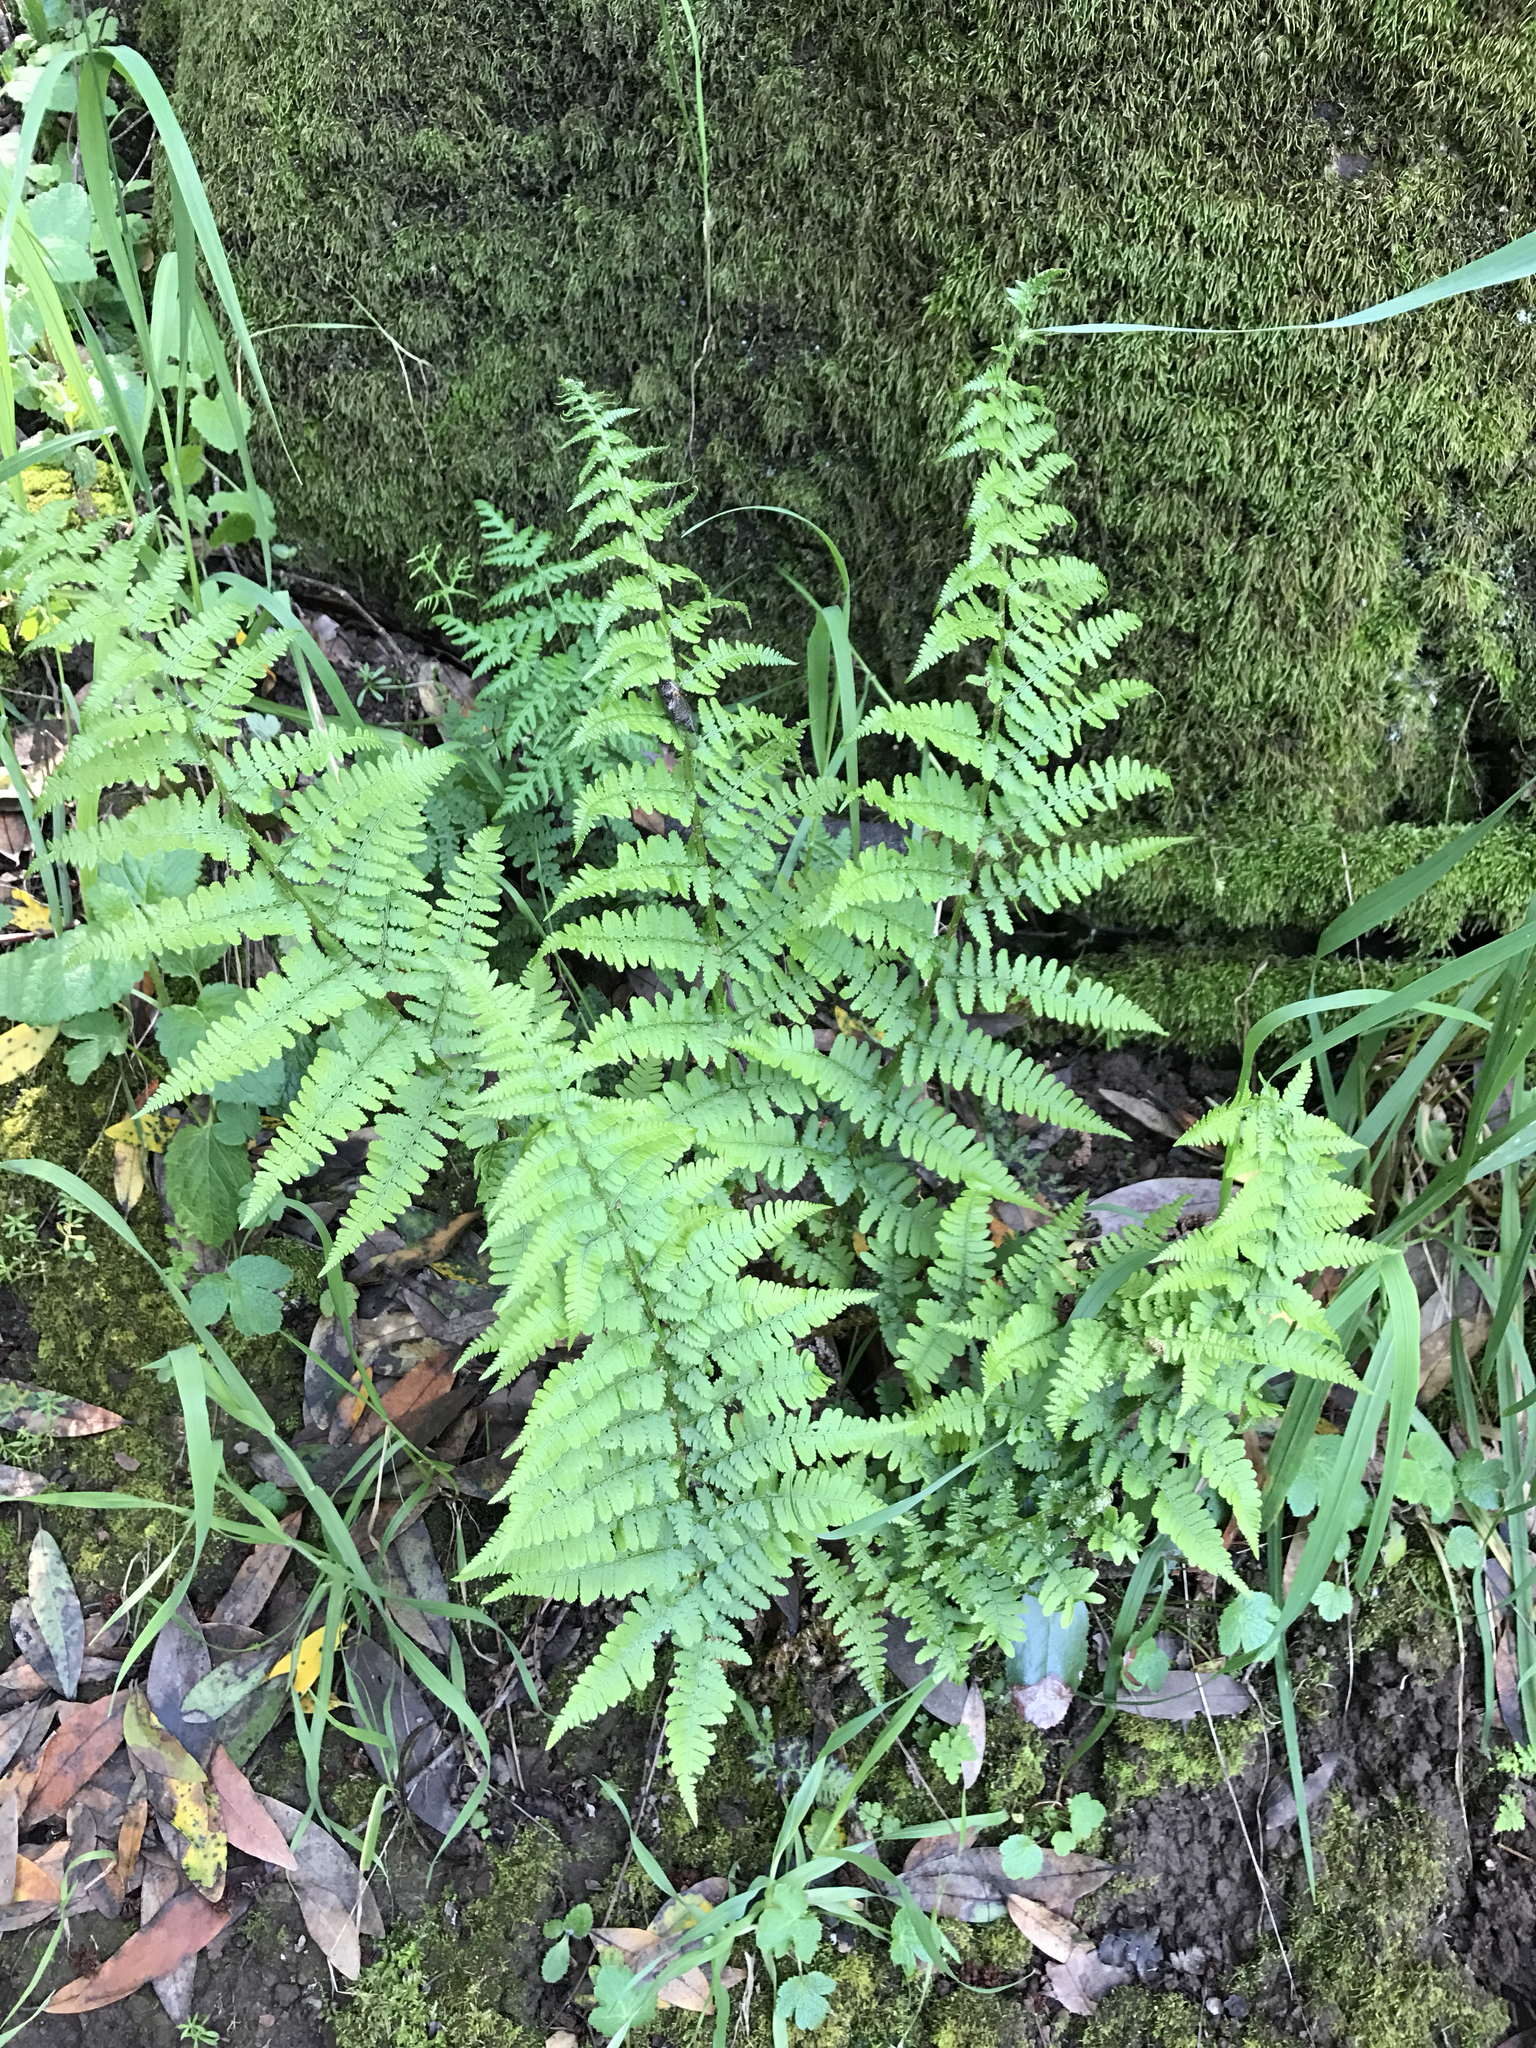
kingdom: Plantae
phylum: Tracheophyta
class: Polypodiopsida
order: Polypodiales
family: Dryopteridaceae
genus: Dryopteris
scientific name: Dryopteris arguta
